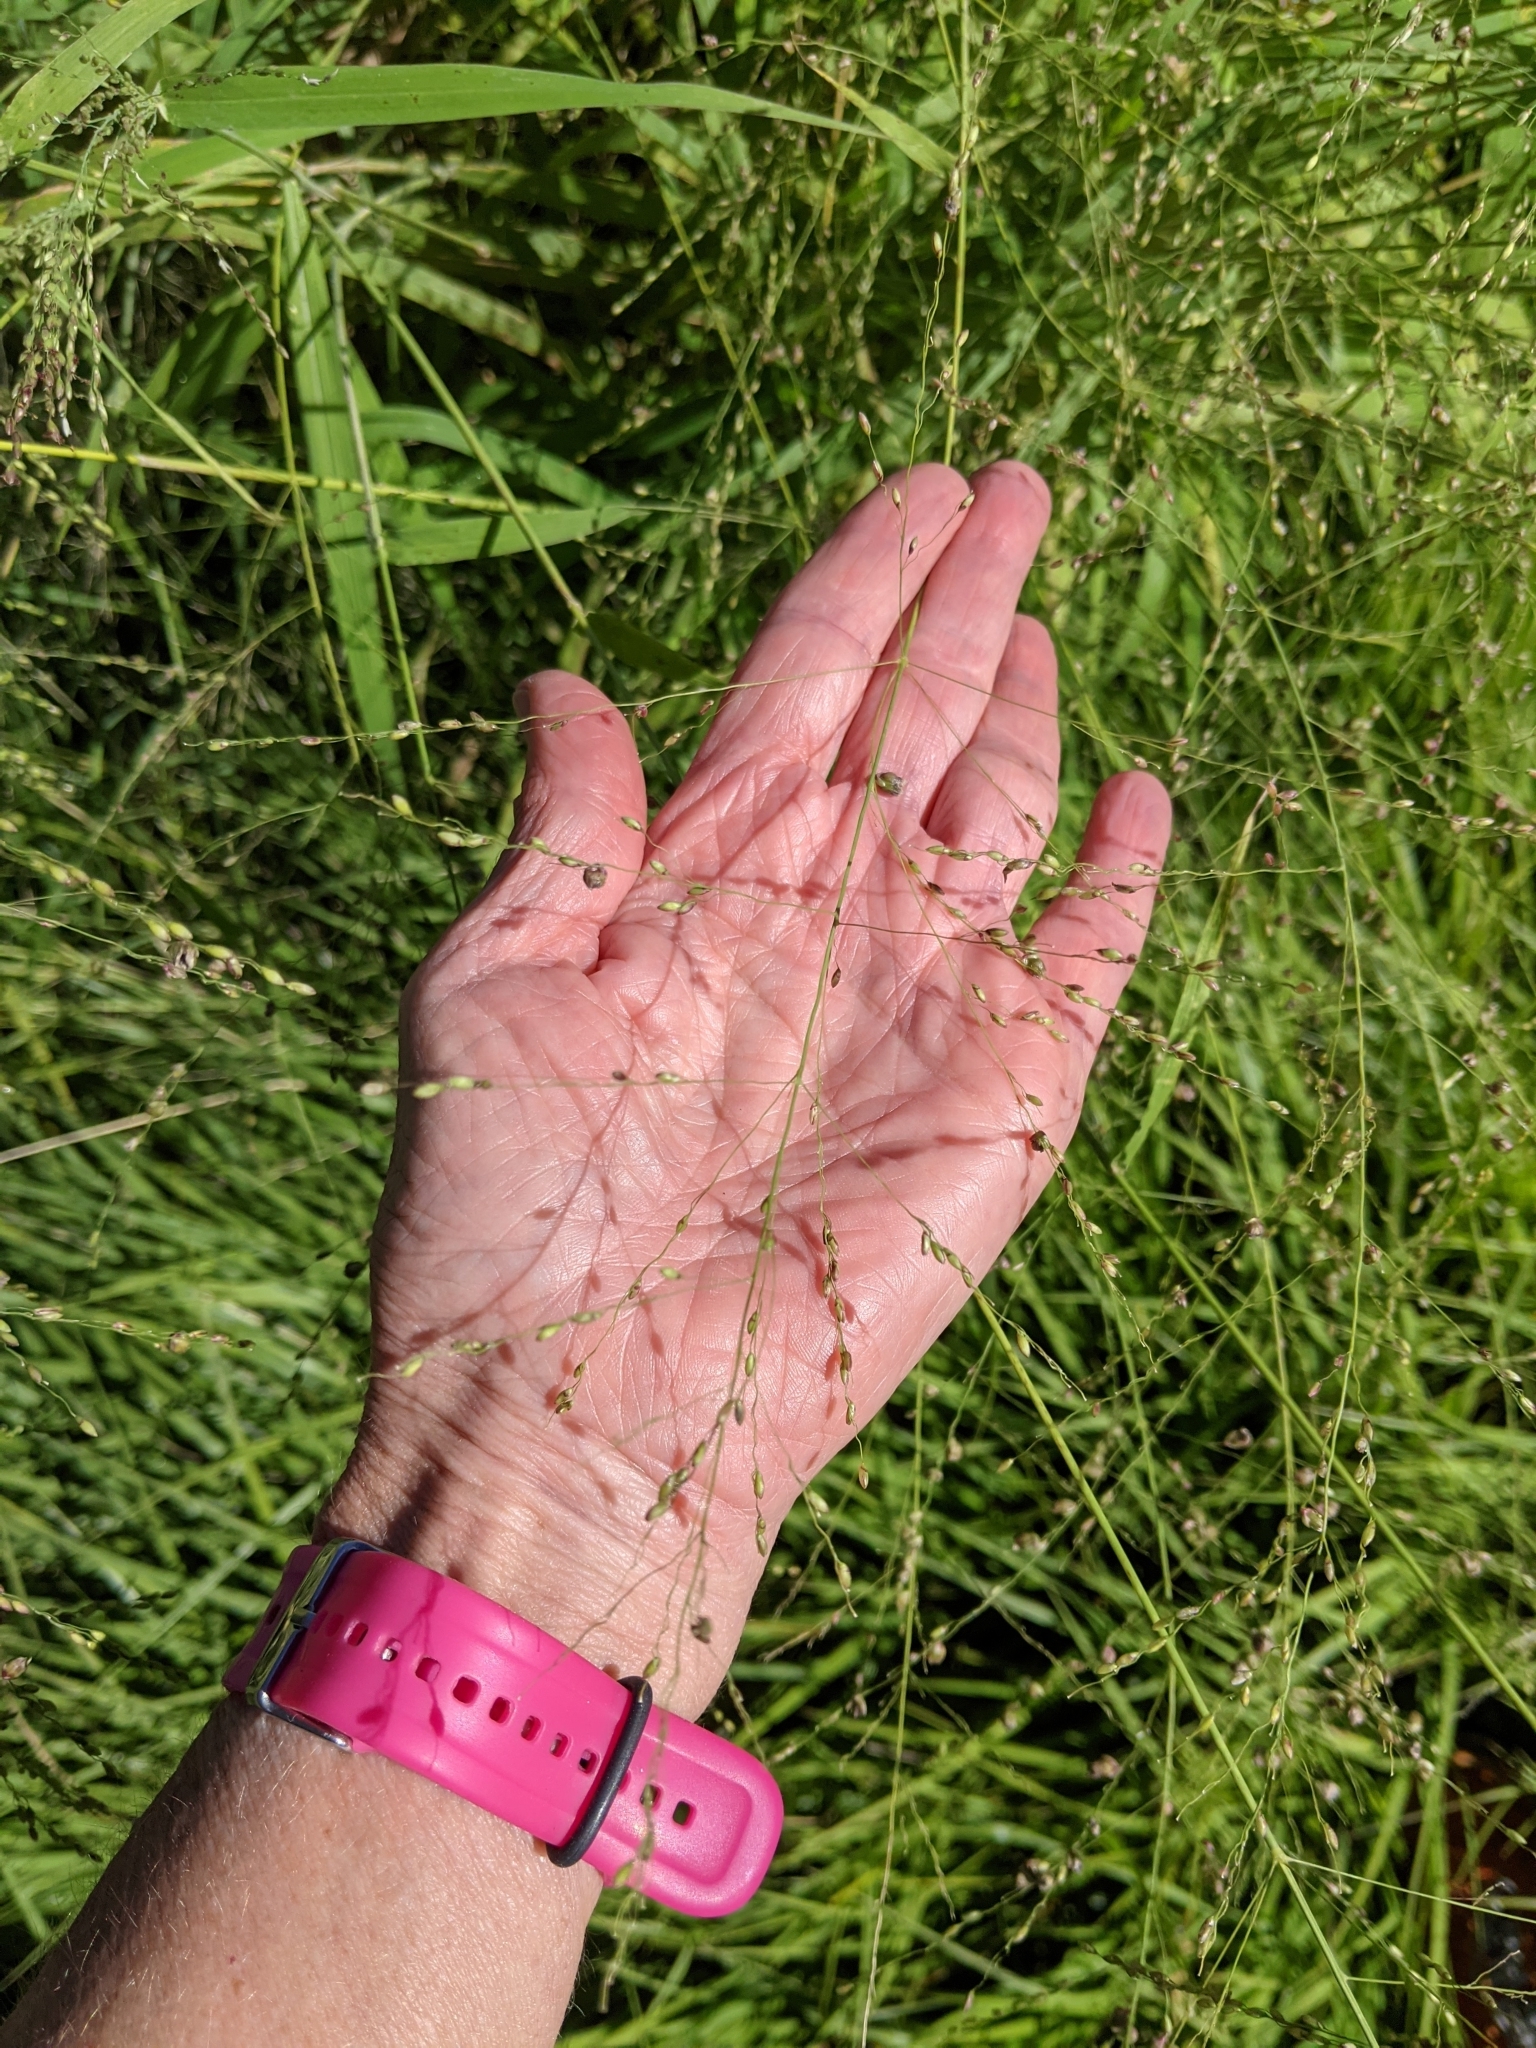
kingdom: Plantae
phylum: Tracheophyta
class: Liliopsida
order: Poales
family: Poaceae
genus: Megathyrsus
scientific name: Megathyrsus maximus
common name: Guineagrass
